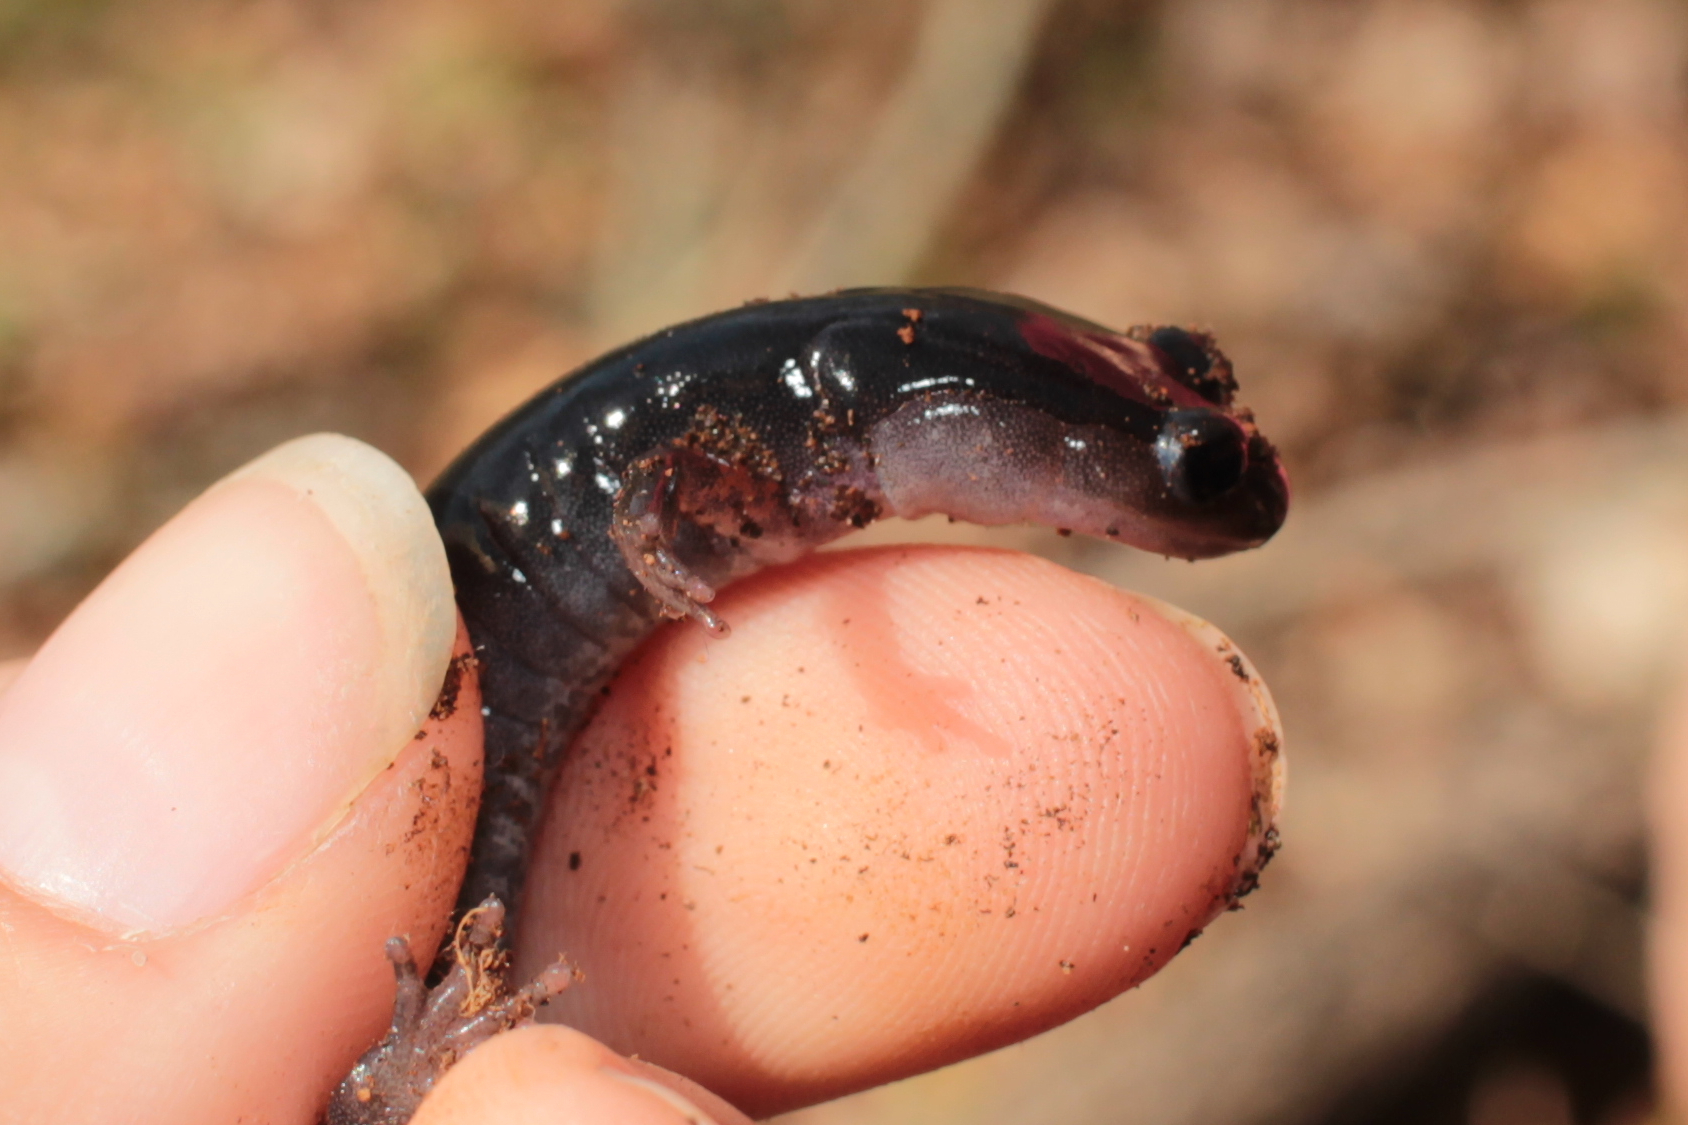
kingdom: Animalia
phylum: Chordata
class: Amphibia
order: Caudata
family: Plethodontidae
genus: Plethodon
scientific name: Plethodon shermani
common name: Red-legged salamander
